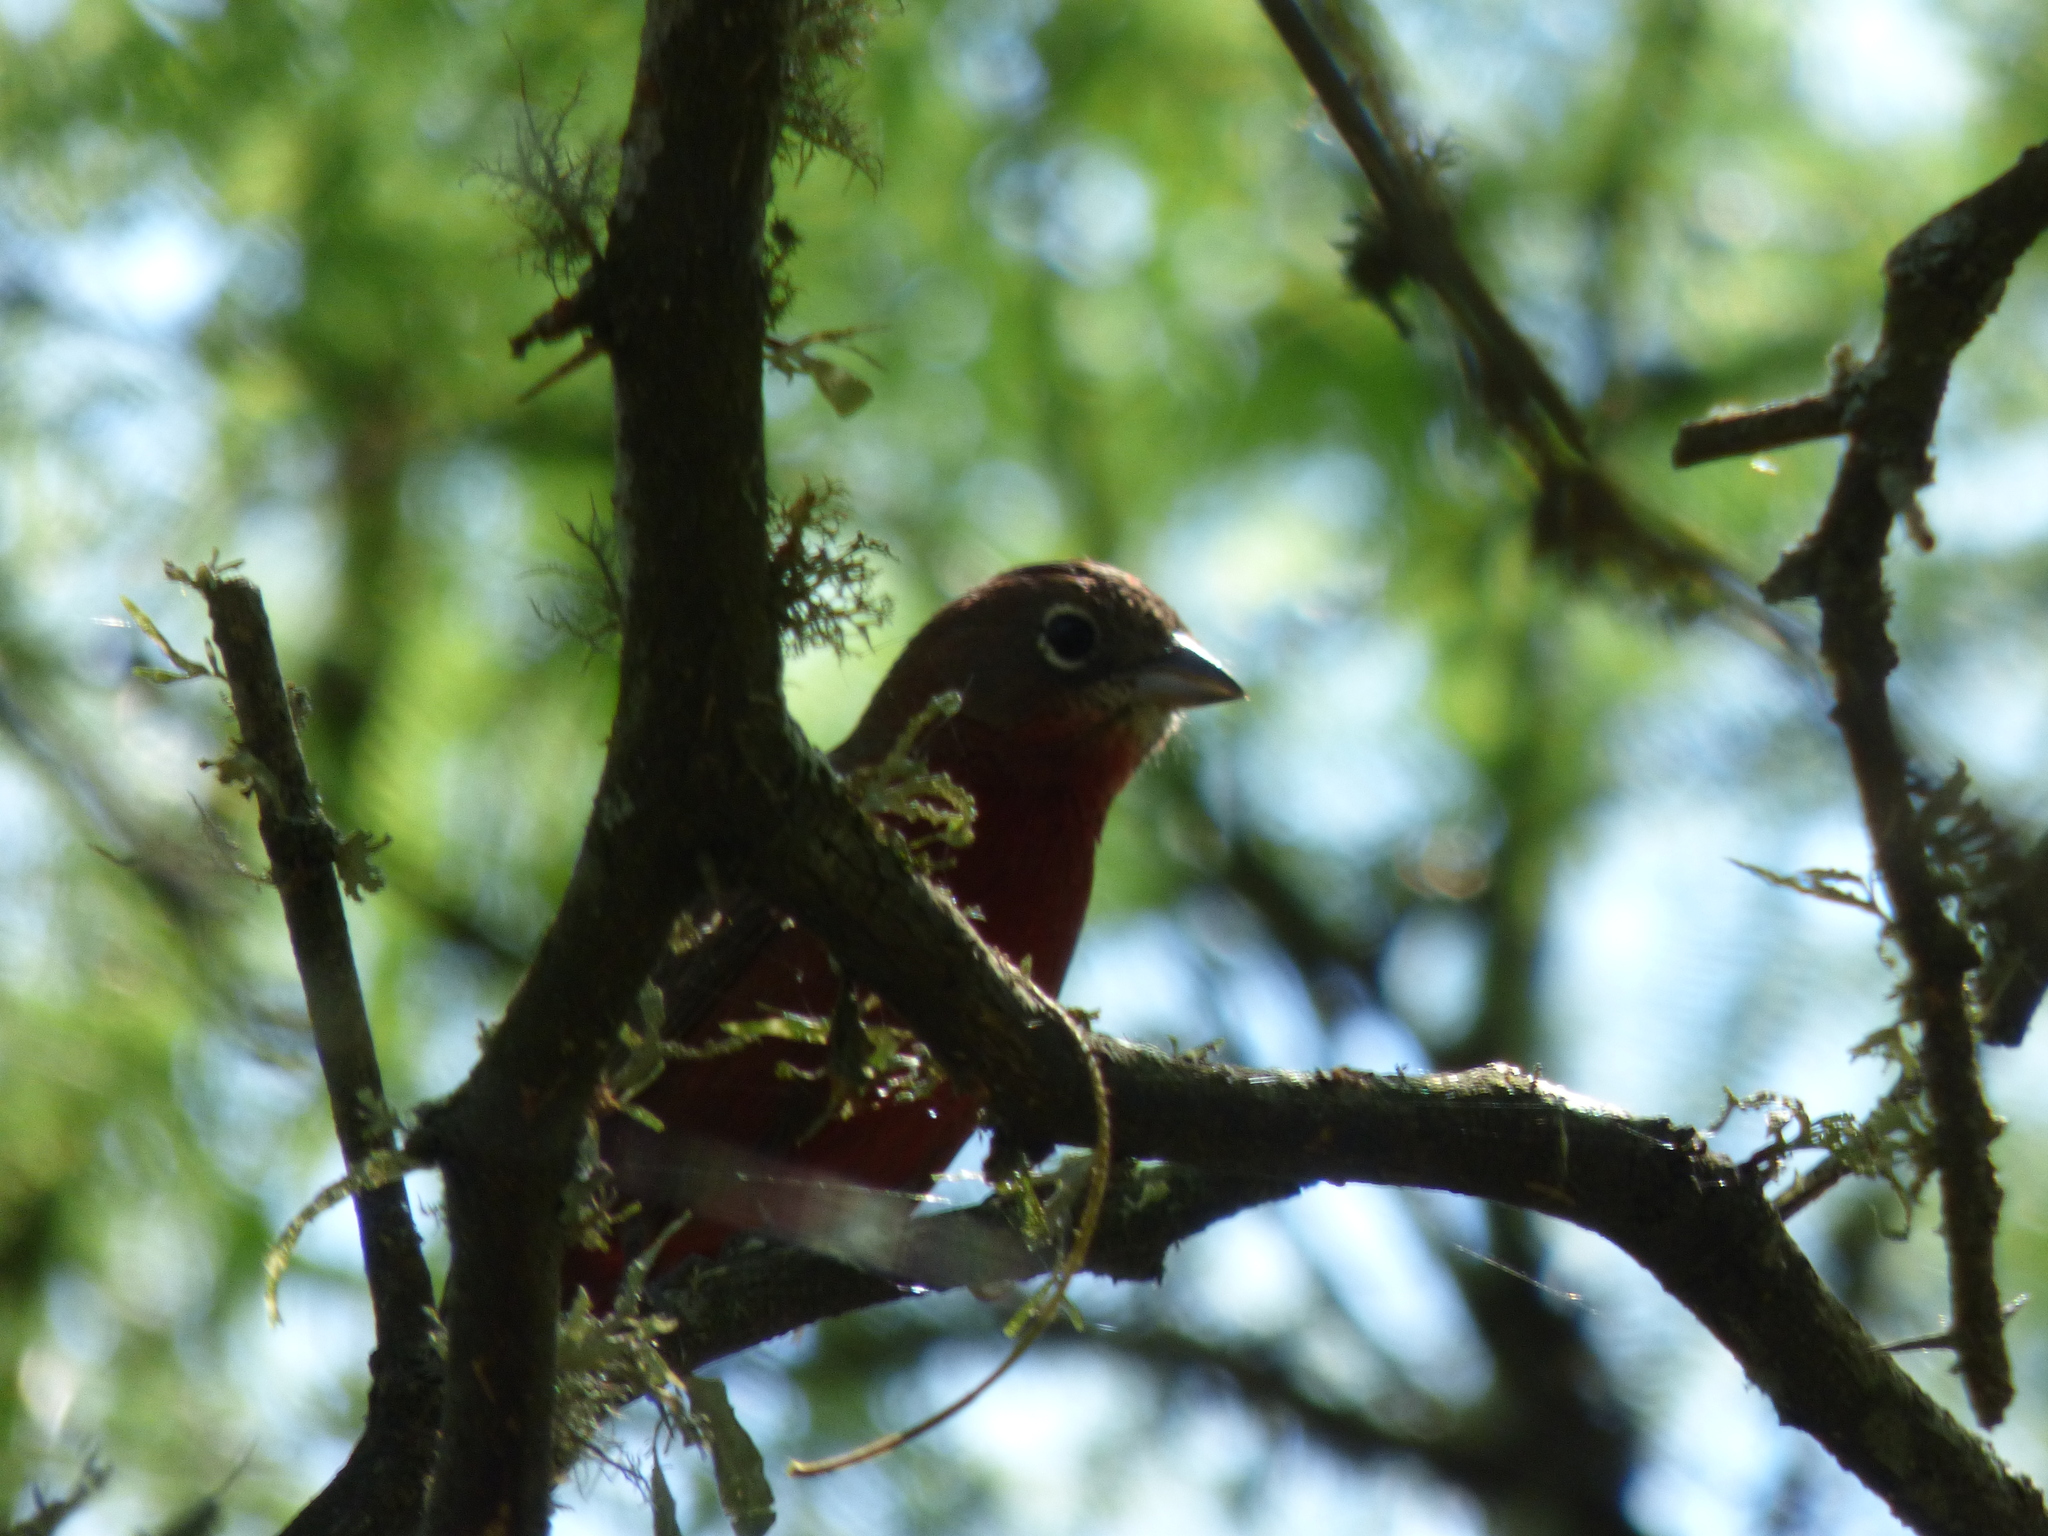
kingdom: Animalia
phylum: Chordata
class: Aves
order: Passeriformes
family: Thraupidae
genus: Coryphospingus
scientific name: Coryphospingus cucullatus
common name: Red pileated finch
